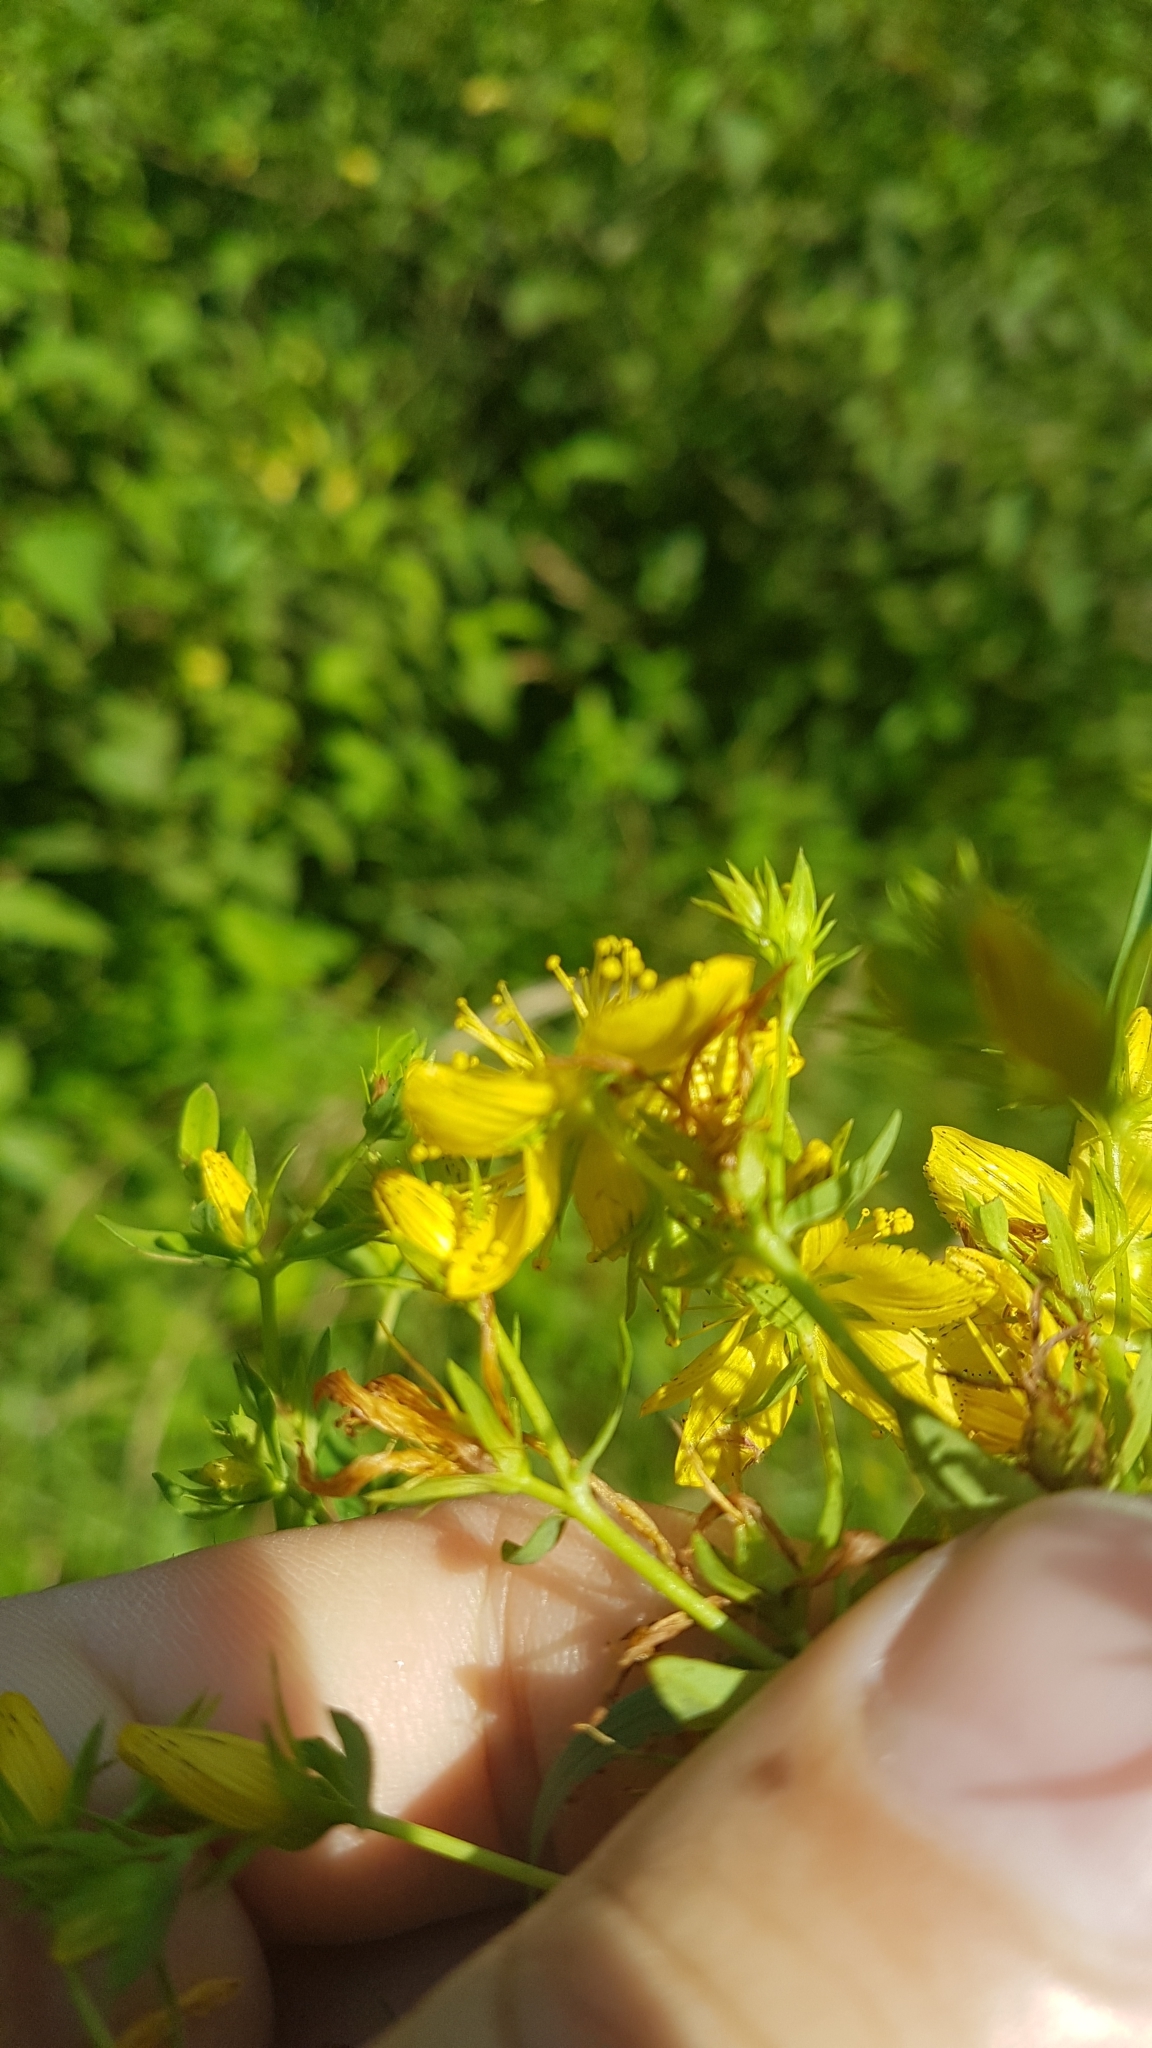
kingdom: Plantae
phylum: Tracheophyta
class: Magnoliopsida
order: Malpighiales
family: Hypericaceae
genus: Hypericum
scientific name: Hypericum perforatum
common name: Common st. johnswort
